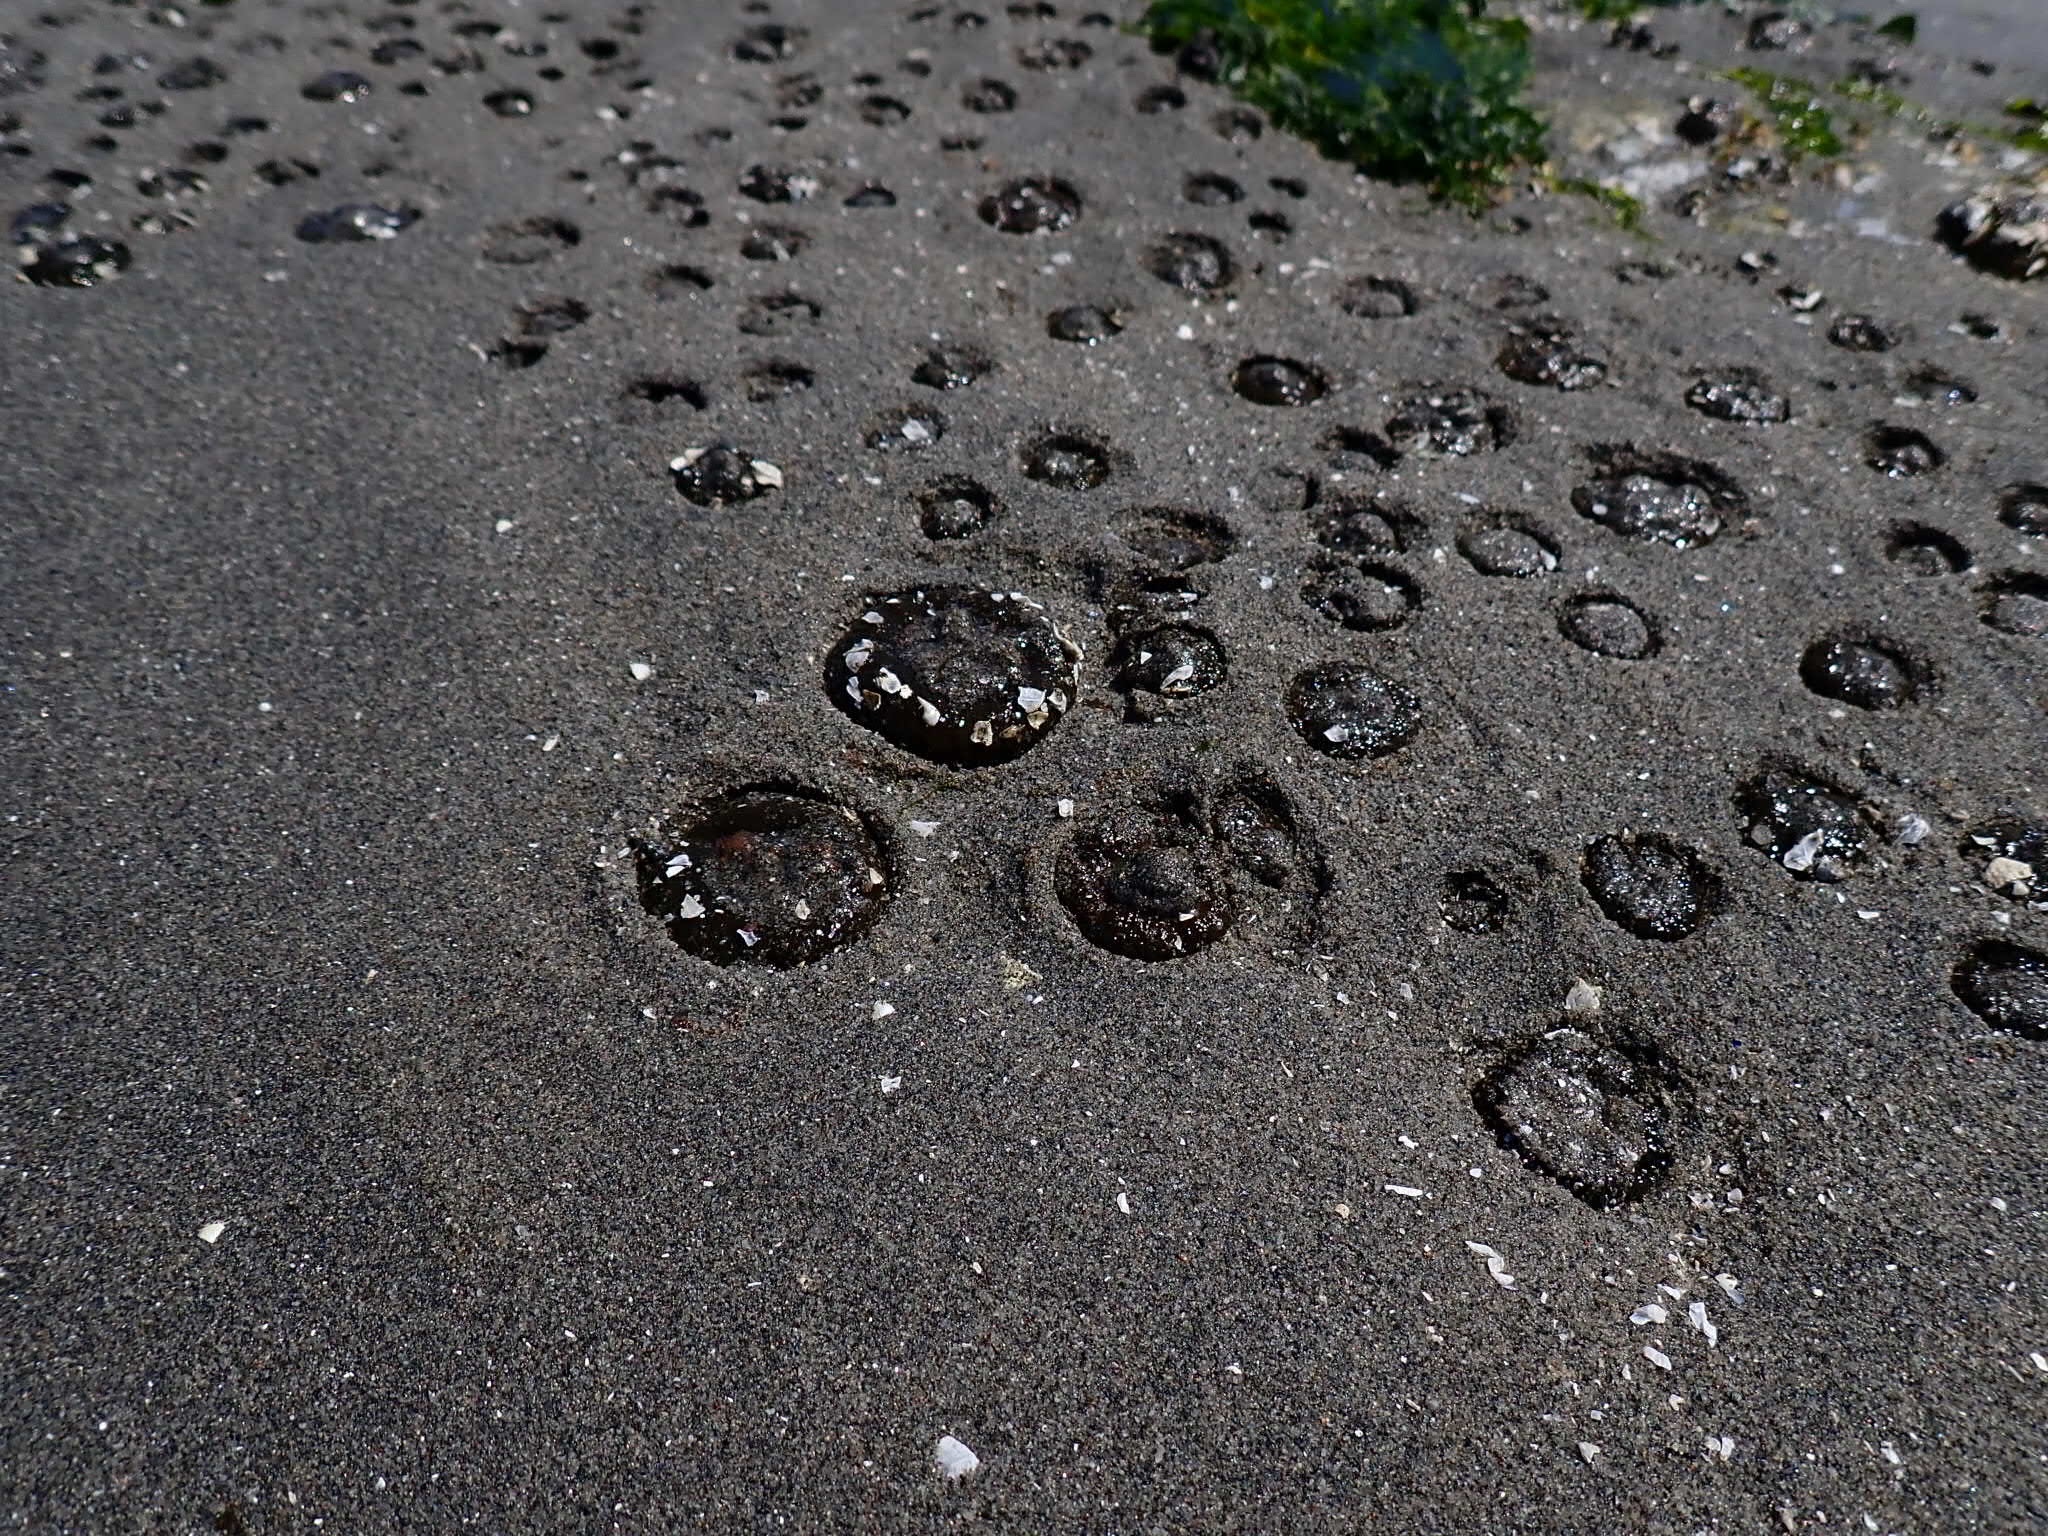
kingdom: Animalia
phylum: Cnidaria
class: Anthozoa
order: Actiniaria
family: Actiniidae
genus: Anthopleura
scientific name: Anthopleura elegantissima
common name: Clonal anemone
